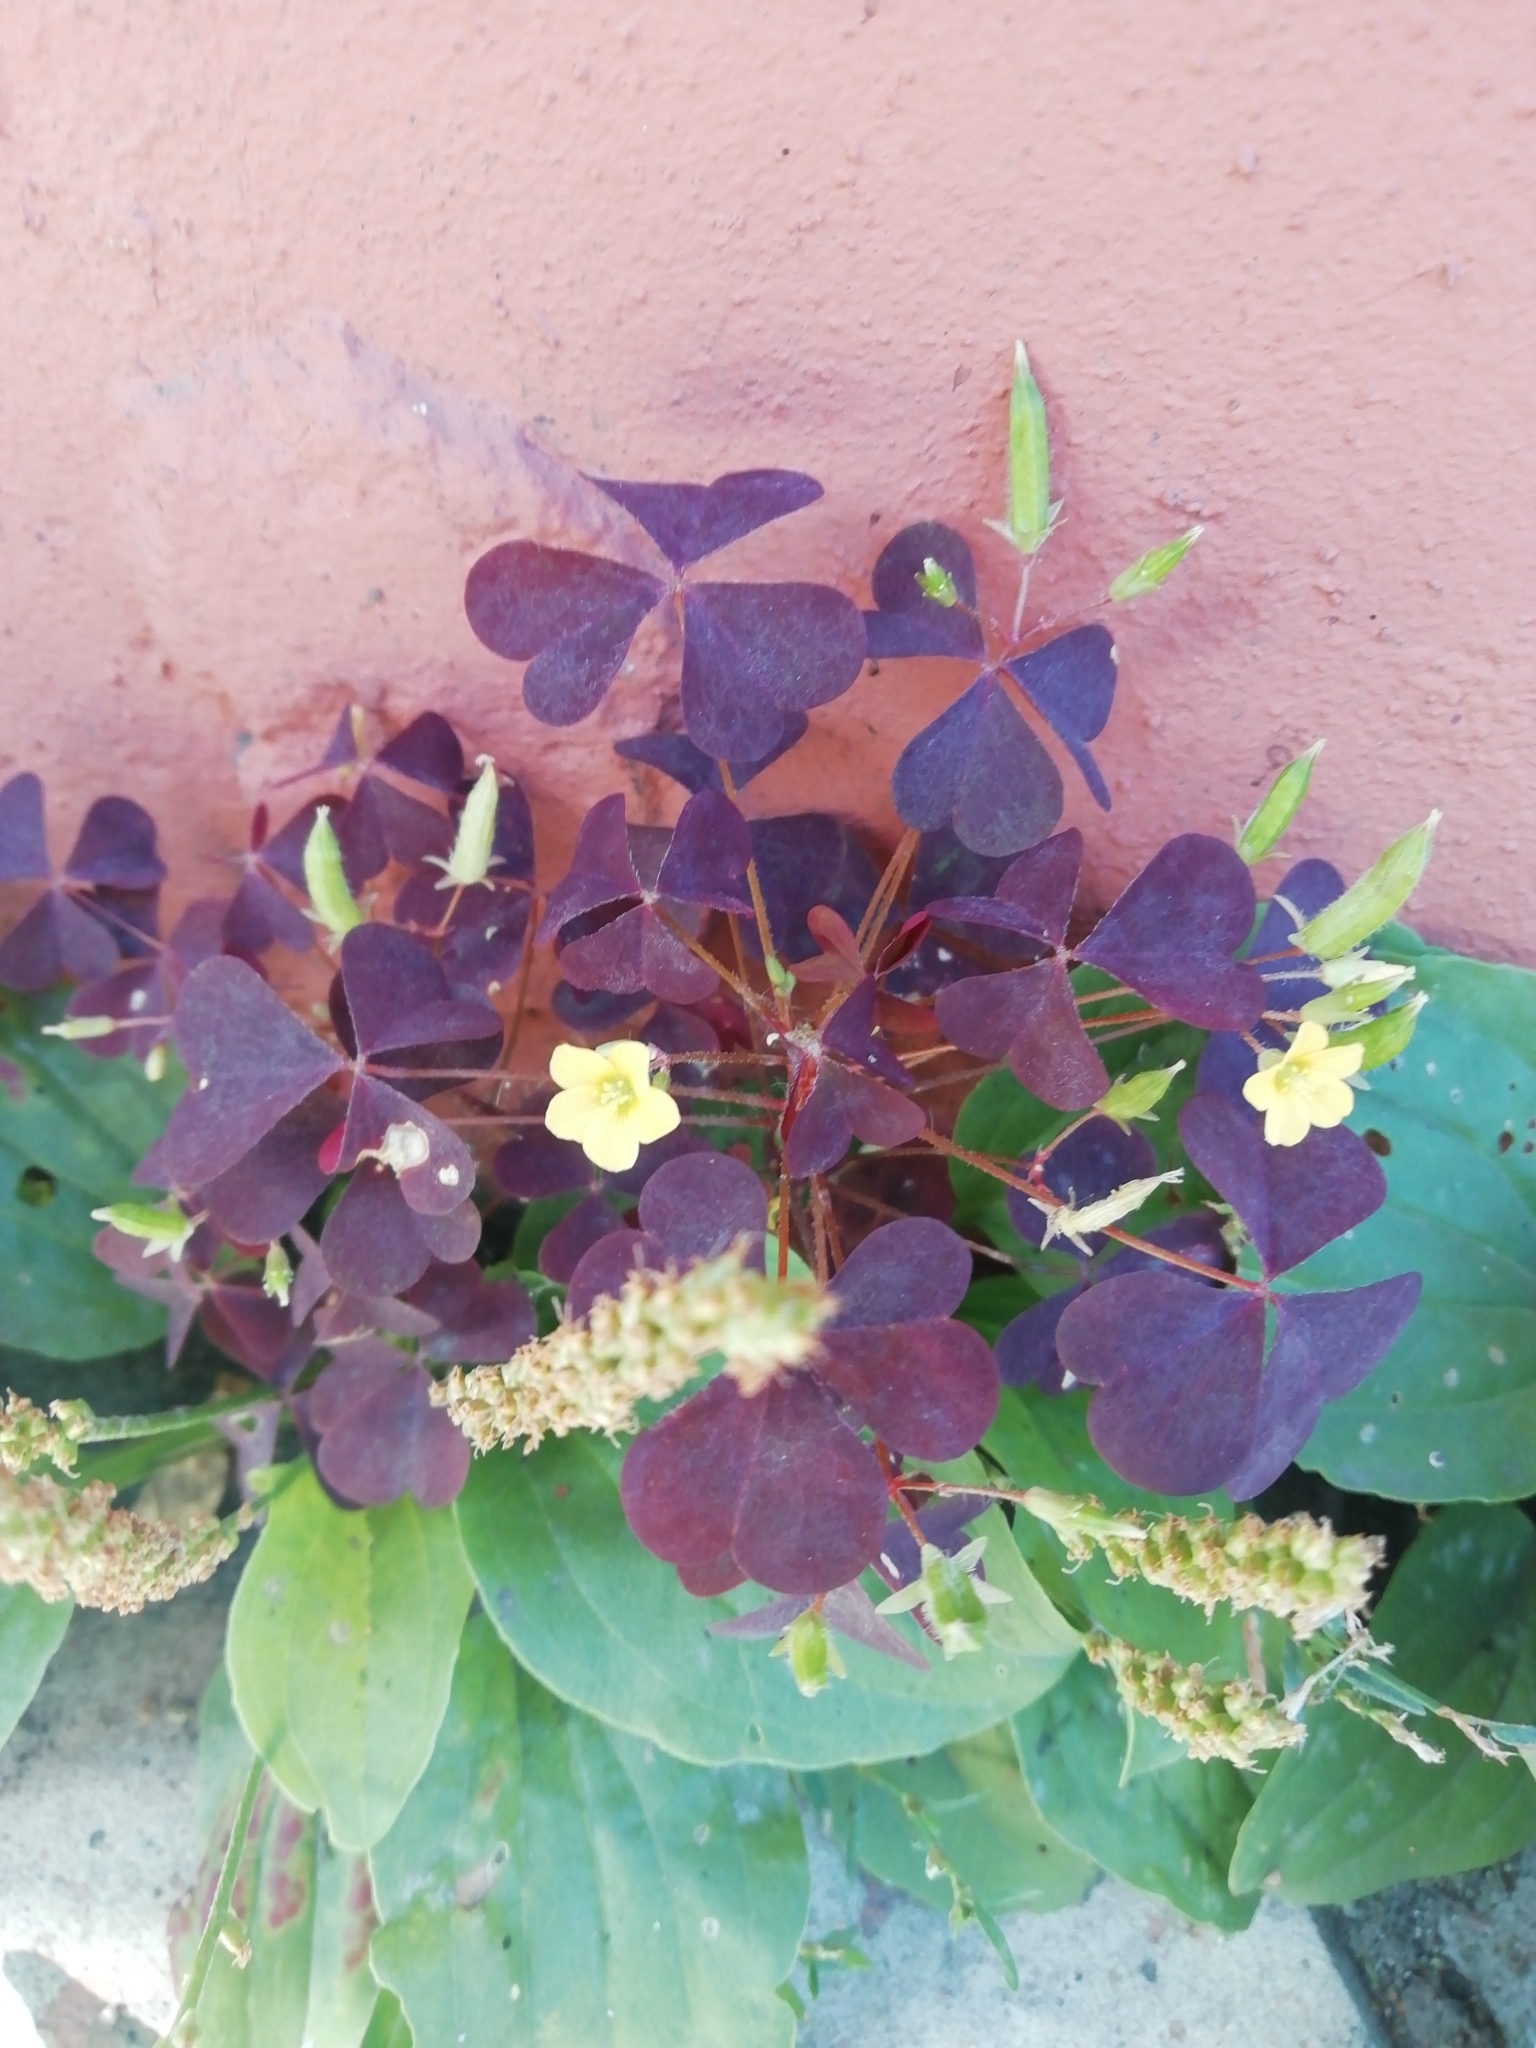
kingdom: Plantae
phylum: Tracheophyta
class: Magnoliopsida
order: Oxalidales
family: Oxalidaceae
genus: Oxalis
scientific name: Oxalis stricta
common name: Upright yellow-sorrel
